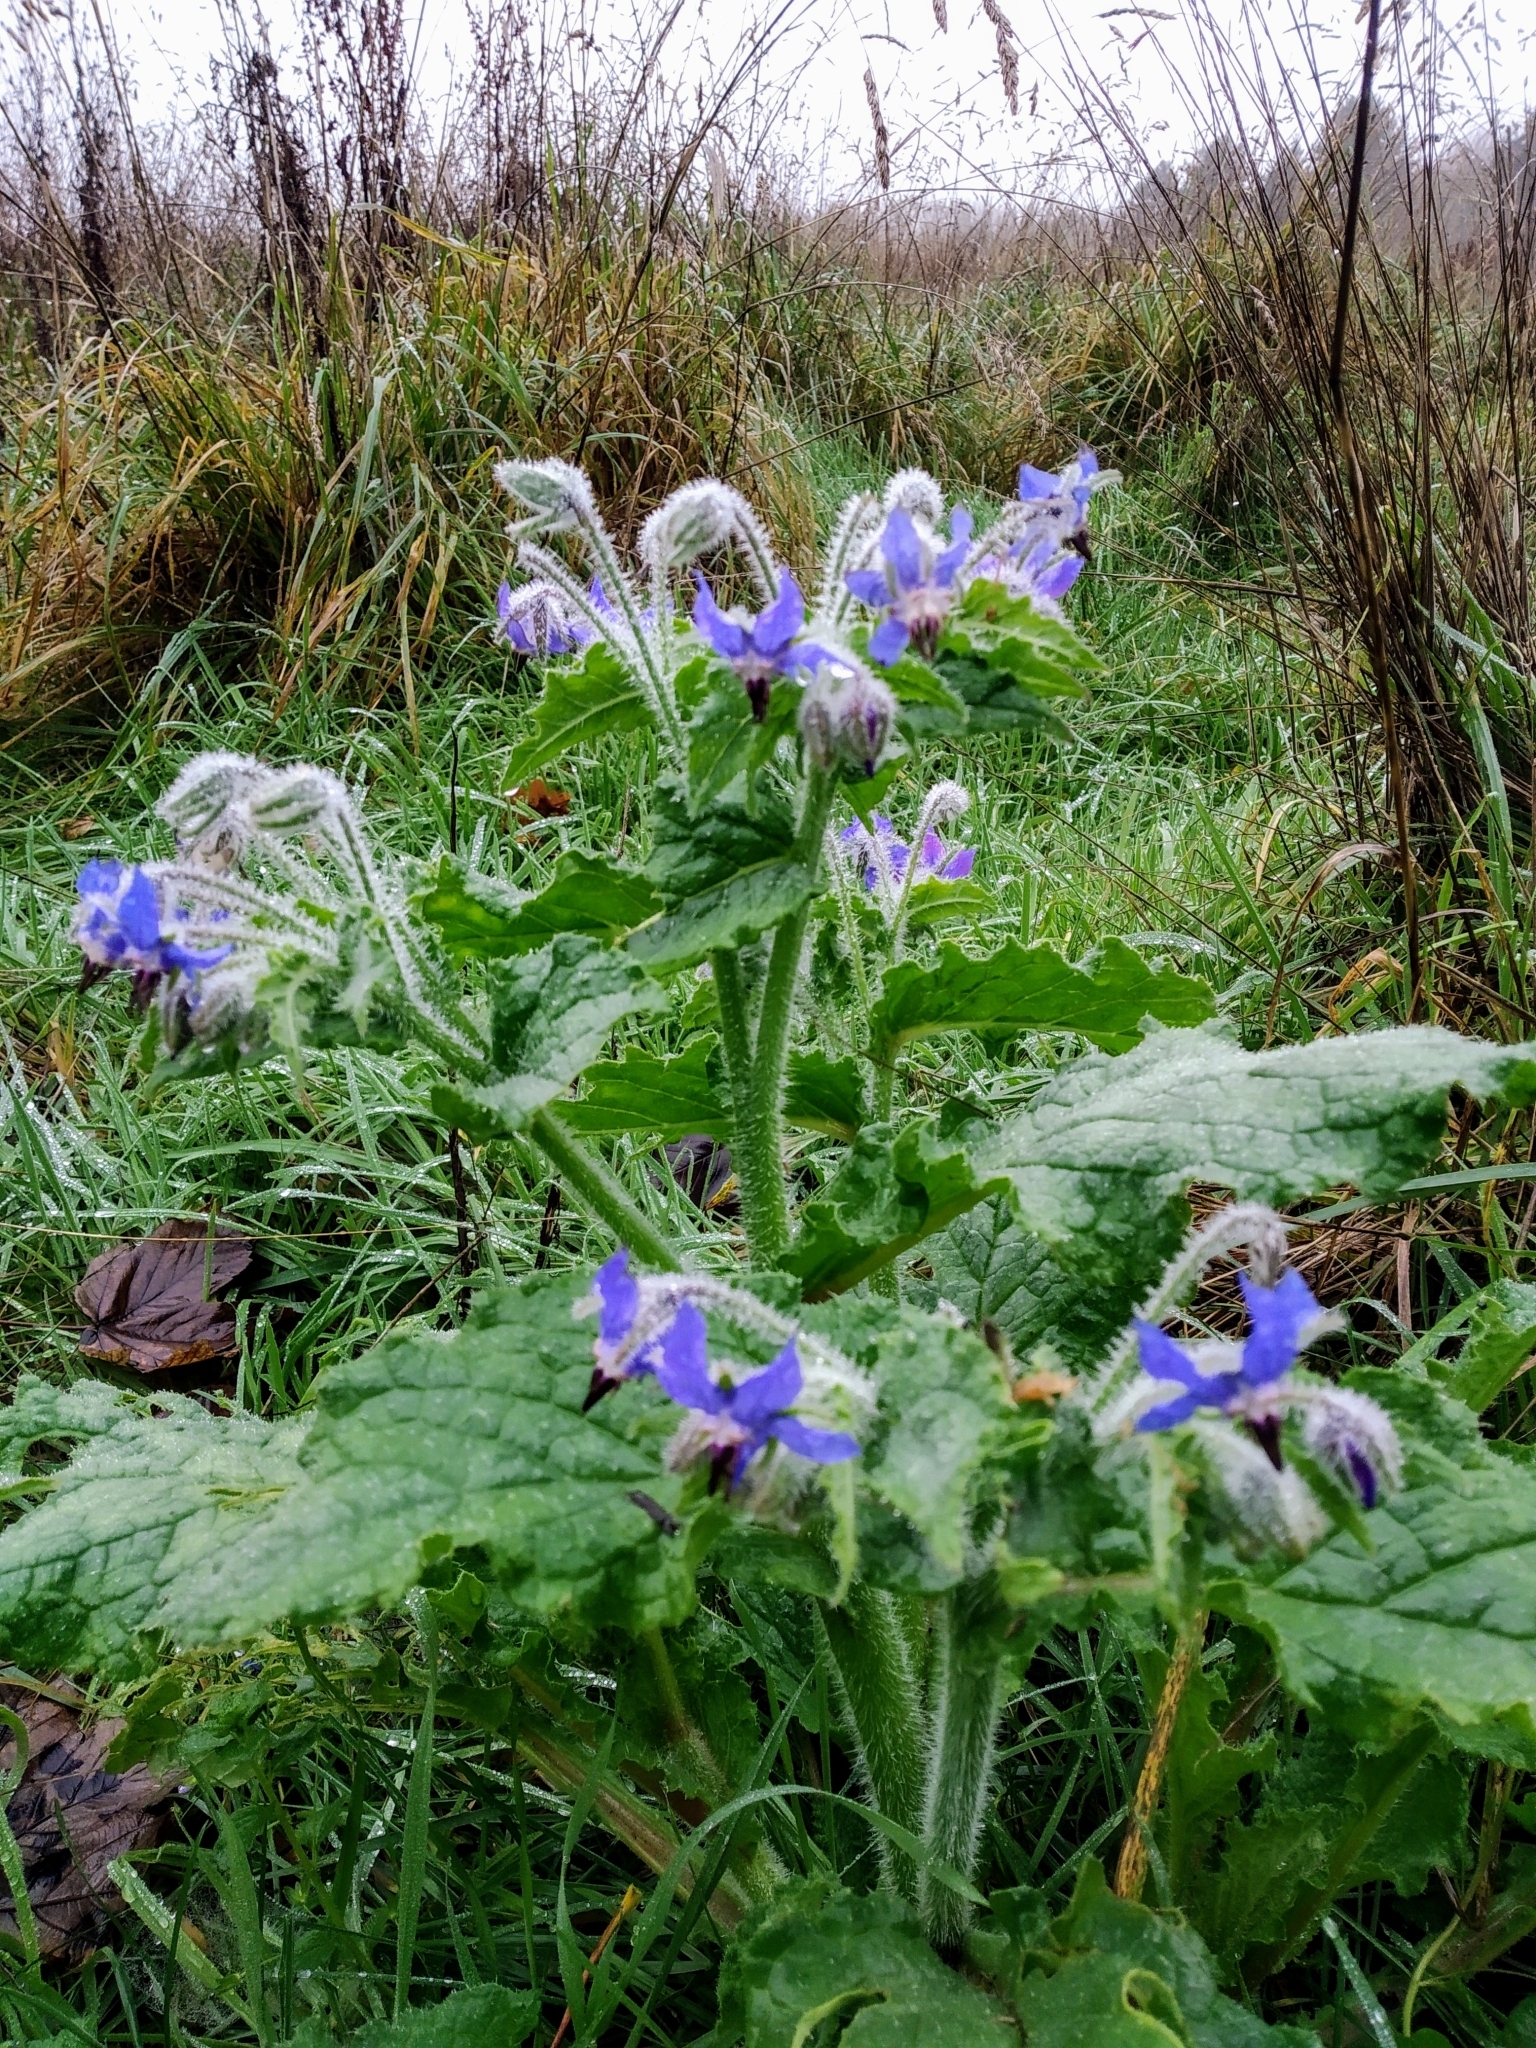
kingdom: Plantae
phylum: Tracheophyta
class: Magnoliopsida
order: Boraginales
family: Boraginaceae
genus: Borago
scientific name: Borago officinalis
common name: Borage
